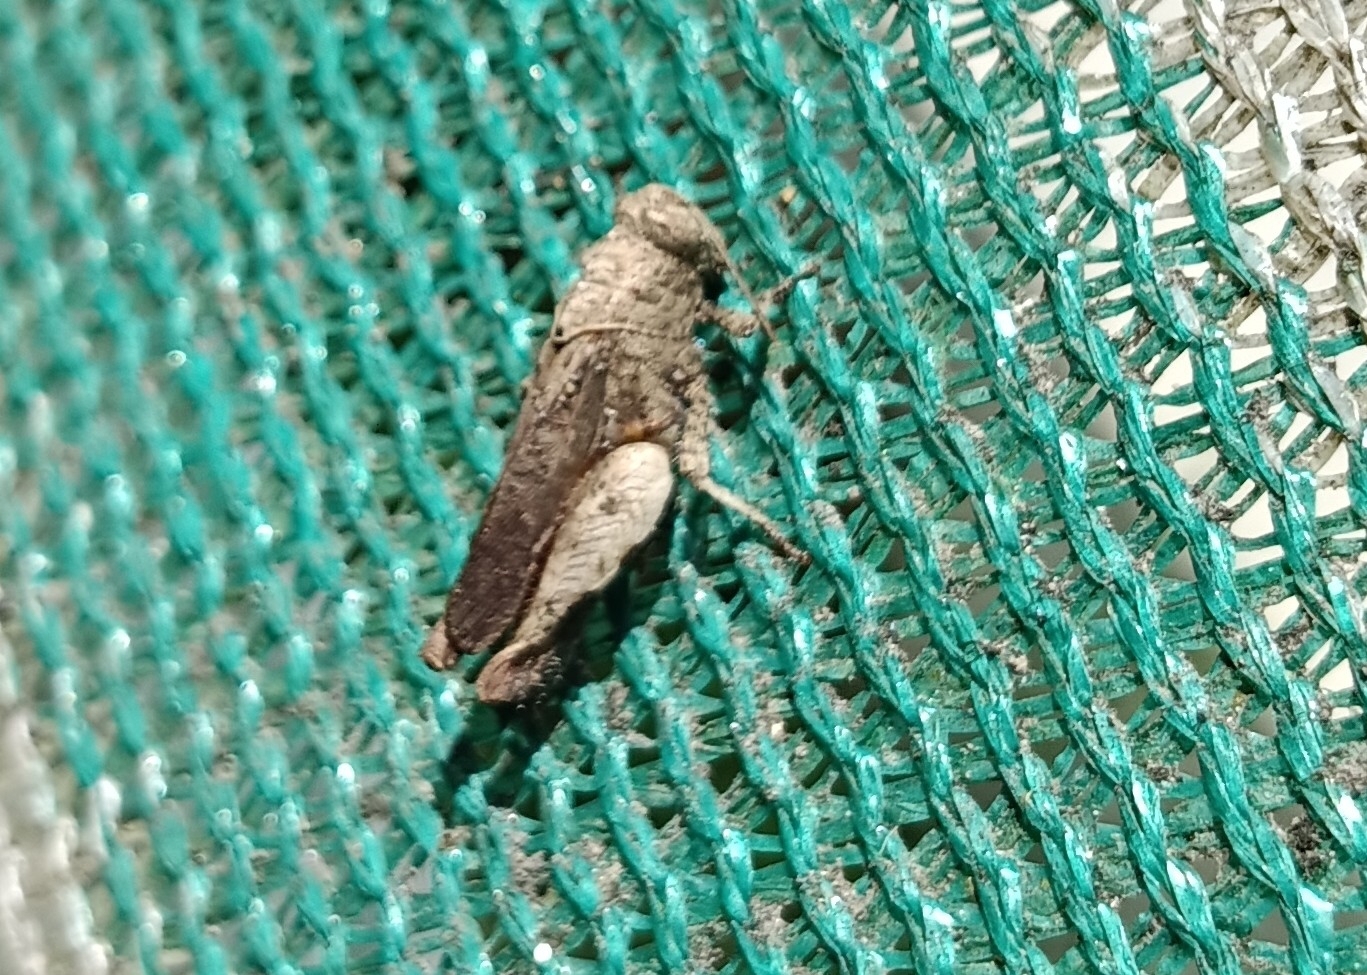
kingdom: Animalia
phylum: Arthropoda
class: Insecta
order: Orthoptera
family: Acrididae
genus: Epistaurus
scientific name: Epistaurus sinetyi
